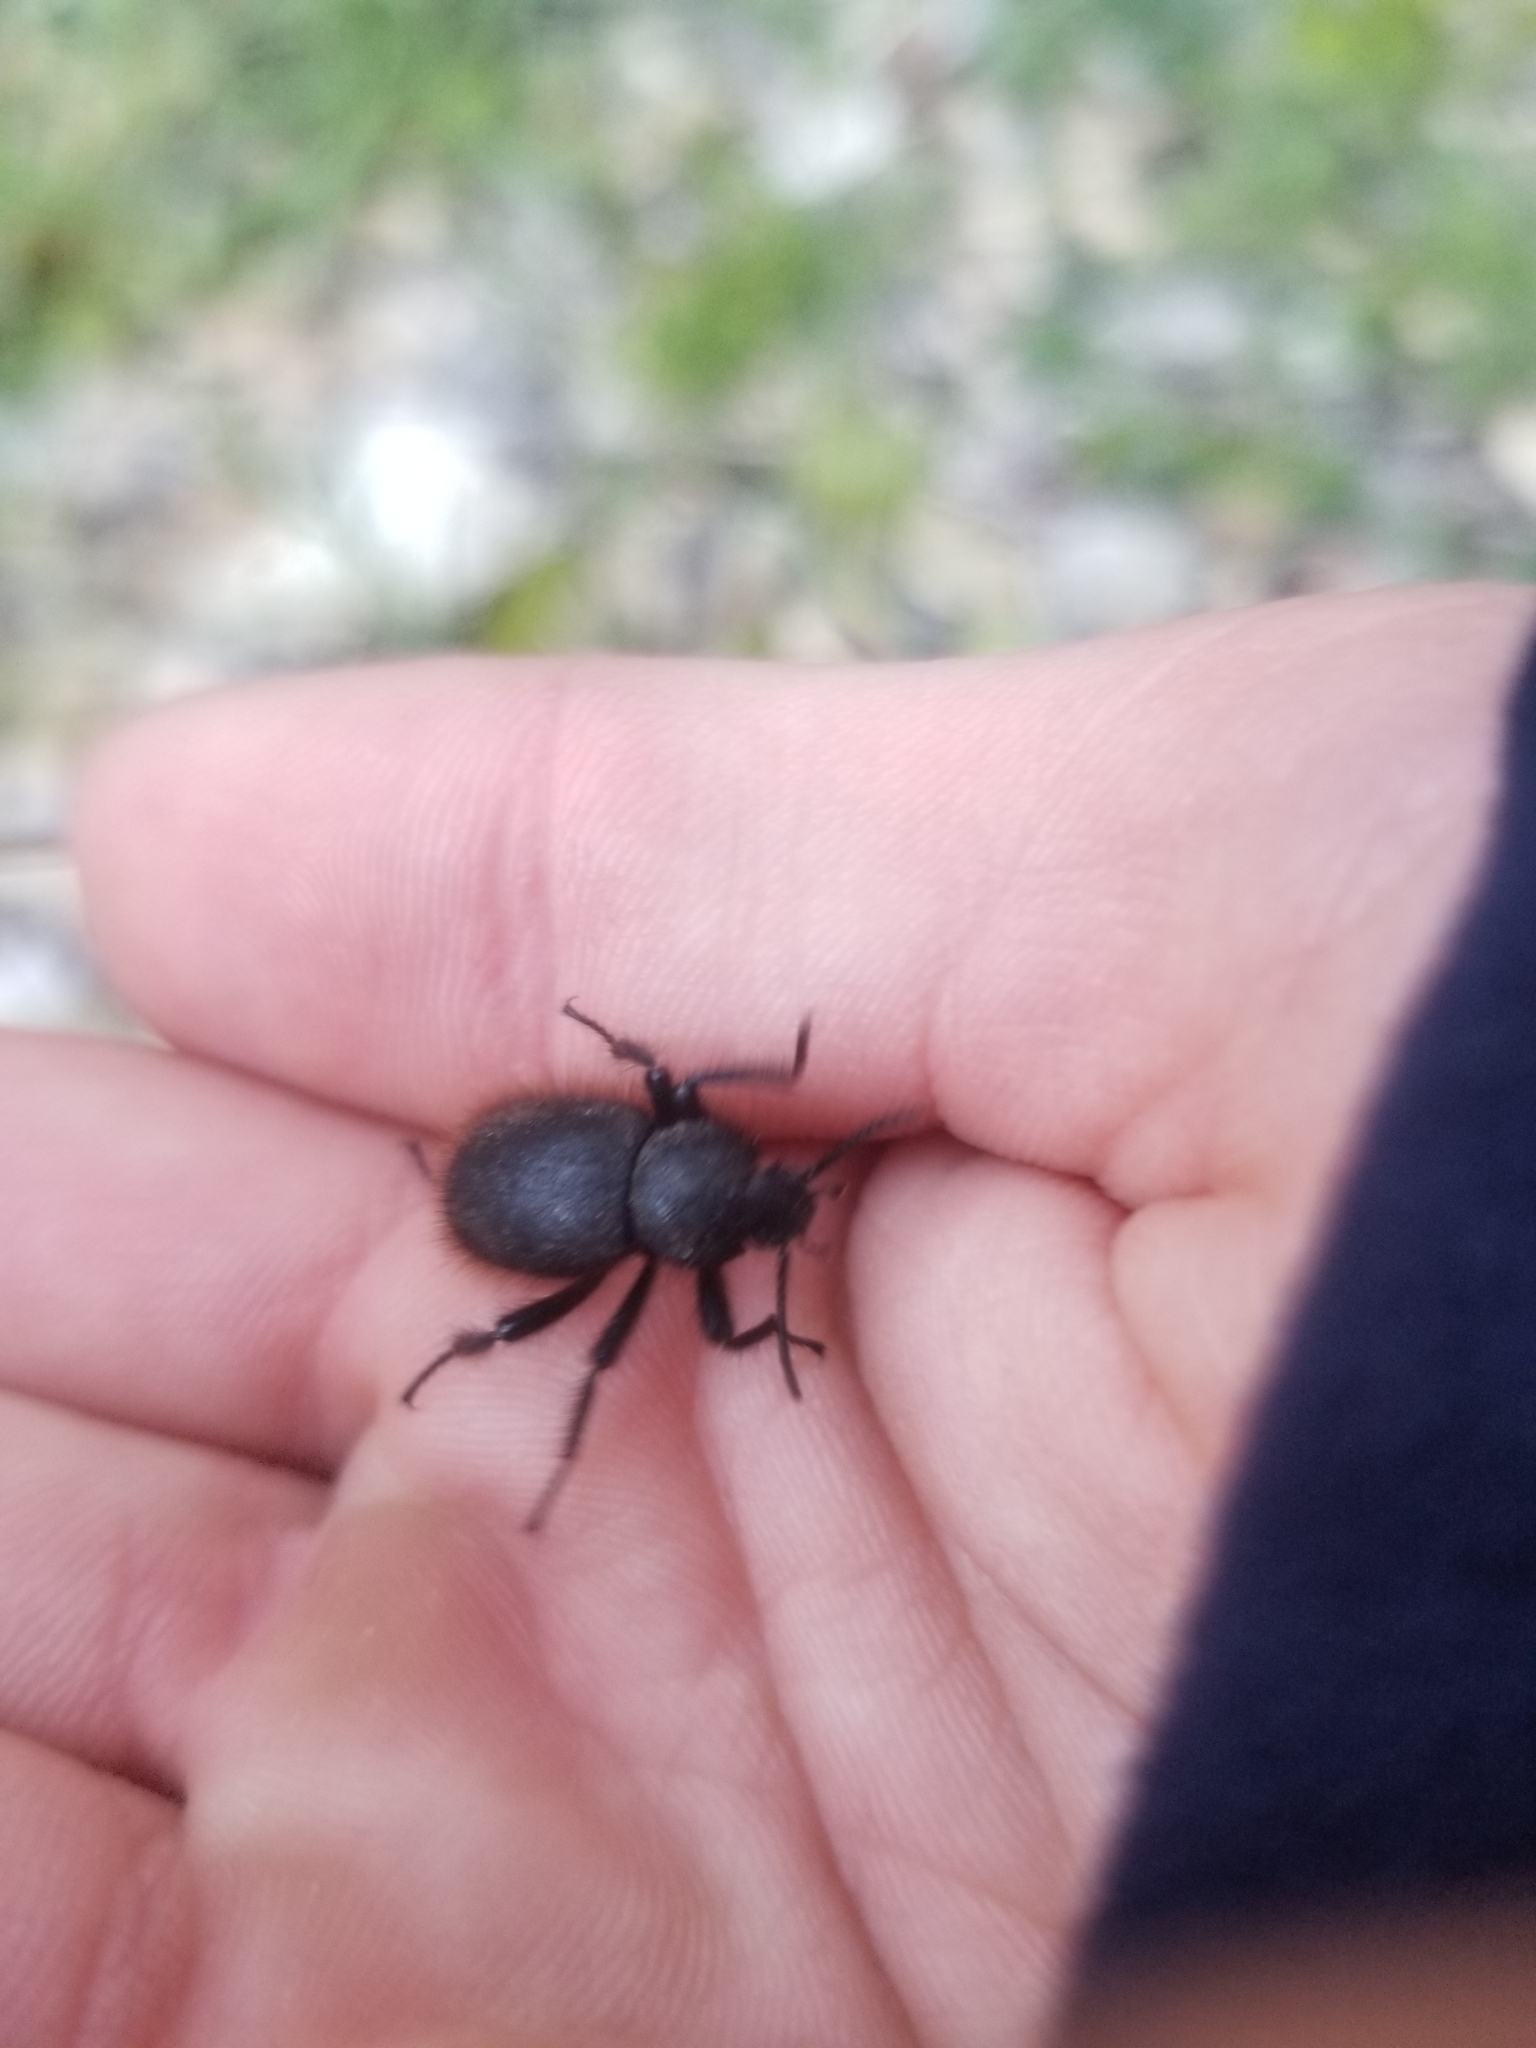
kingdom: Animalia
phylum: Arthropoda
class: Insecta
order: Coleoptera
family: Tenebrionidae
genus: Eleodes
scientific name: Eleodes osculans
